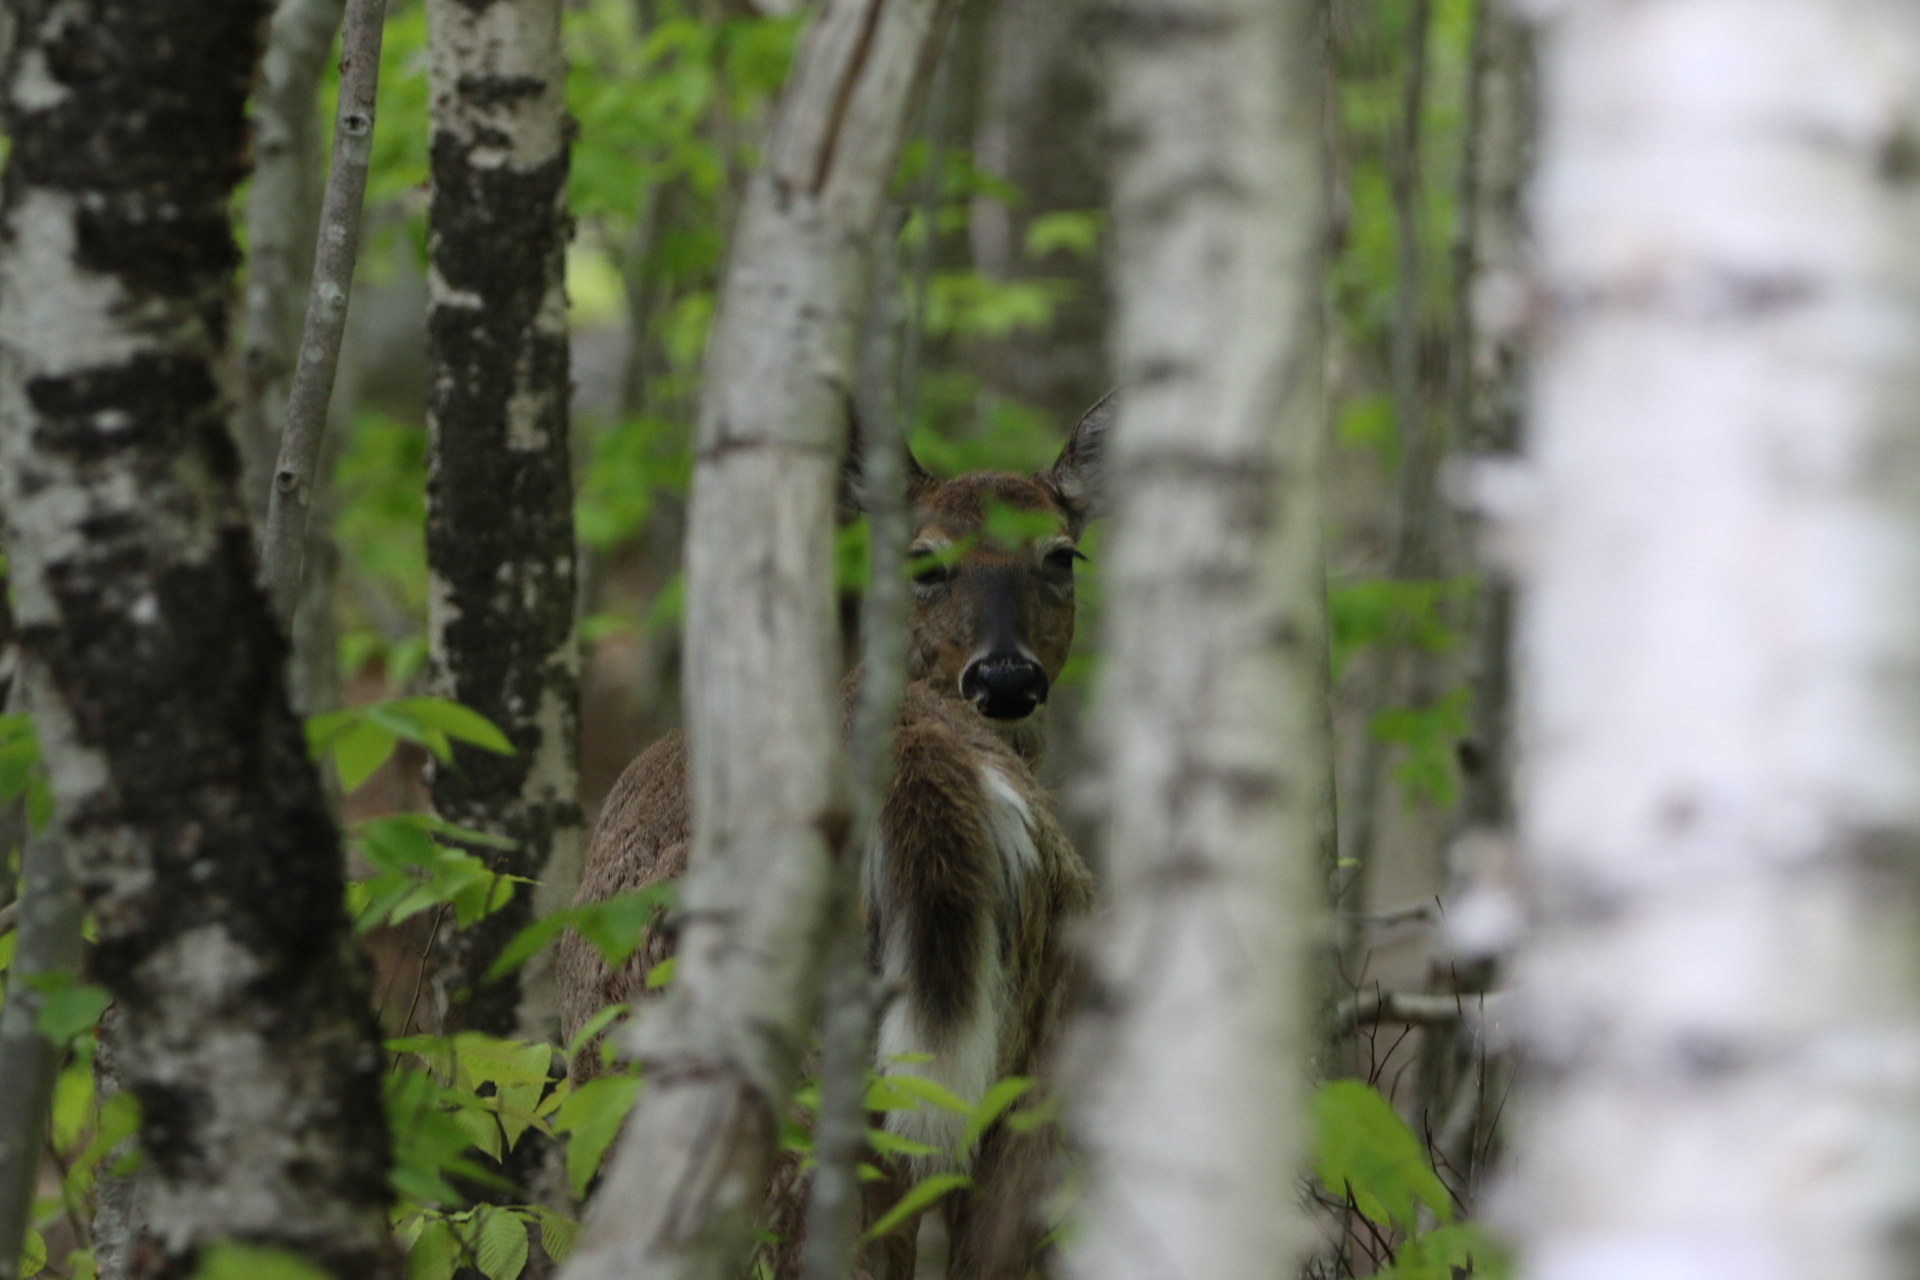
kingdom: Animalia
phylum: Chordata
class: Mammalia
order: Artiodactyla
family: Cervidae
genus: Odocoileus
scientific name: Odocoileus virginianus
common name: White-tailed deer
